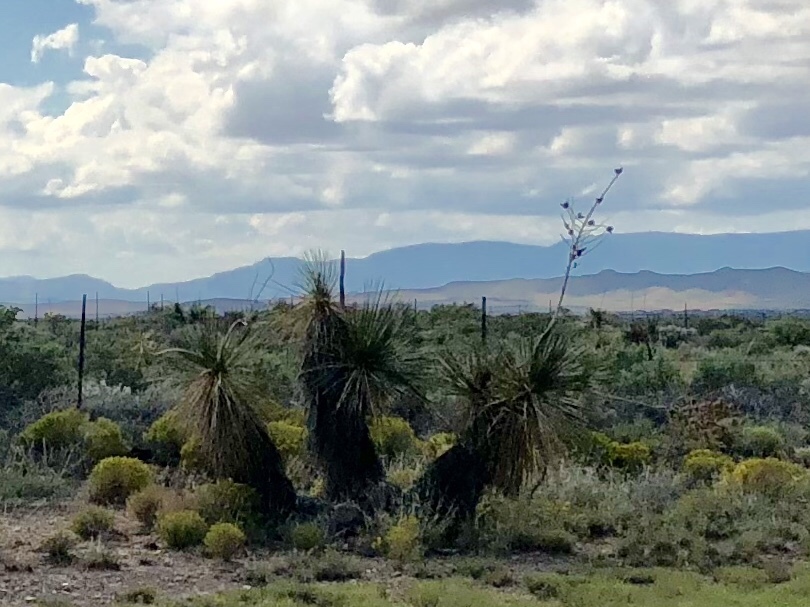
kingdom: Plantae
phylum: Tracheophyta
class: Liliopsida
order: Asparagales
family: Asparagaceae
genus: Yucca
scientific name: Yucca elata
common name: Palmella
